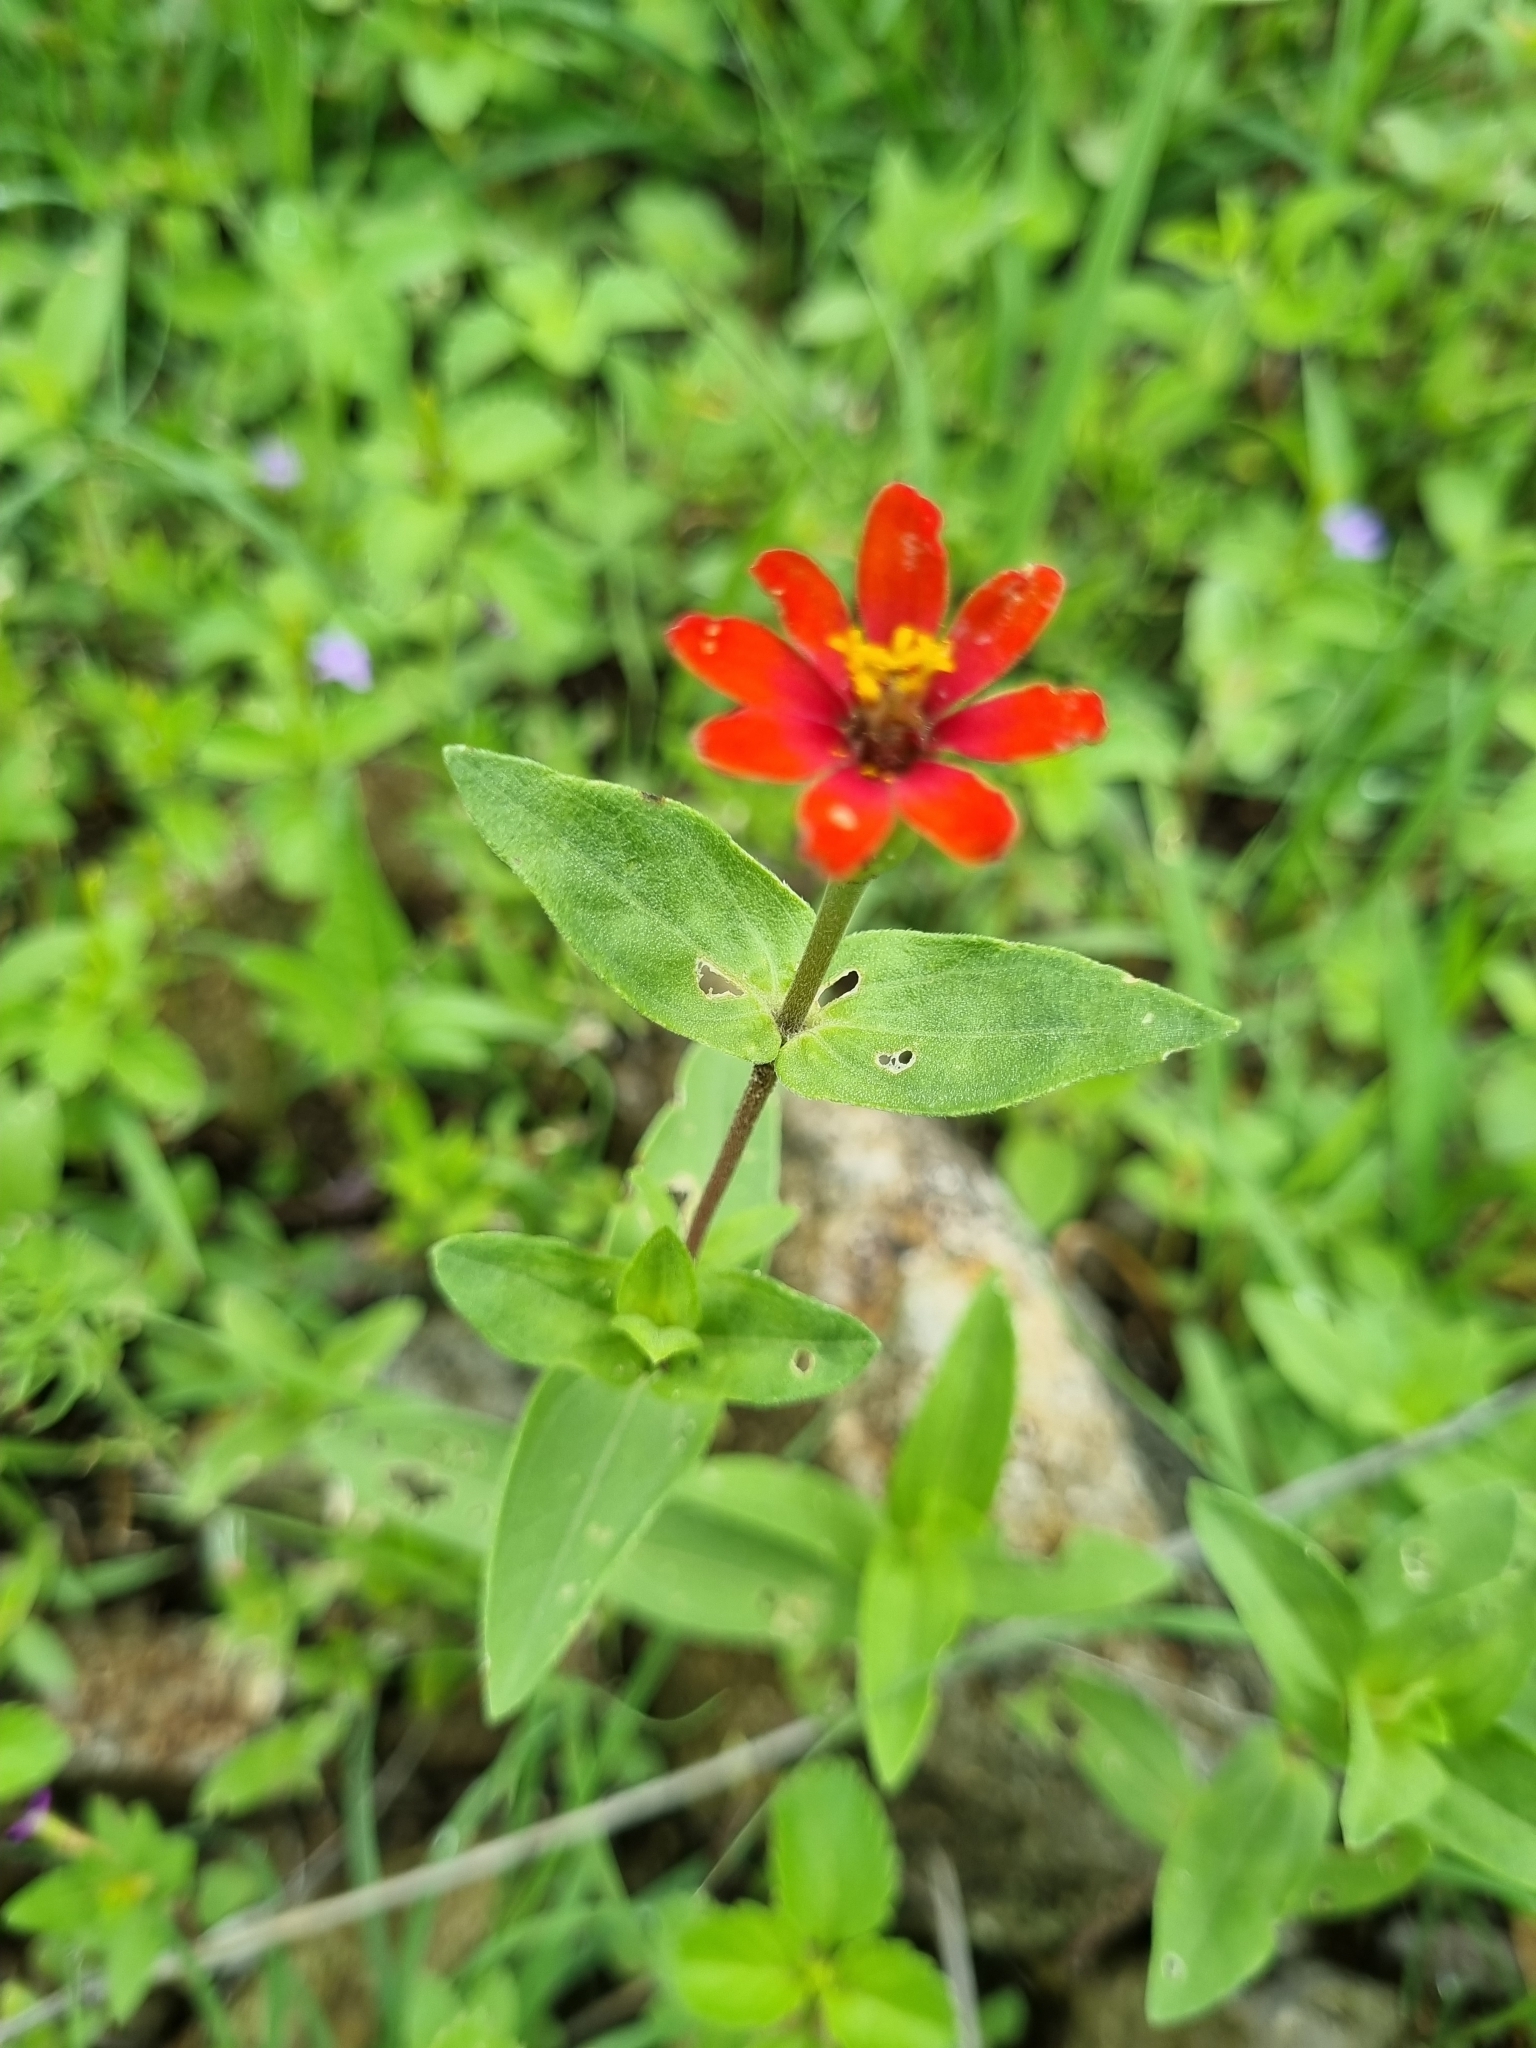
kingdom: Plantae
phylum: Tracheophyta
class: Magnoliopsida
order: Asterales
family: Asteraceae
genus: Zinnia
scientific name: Zinnia peruviana
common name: Peruvian zinnia
